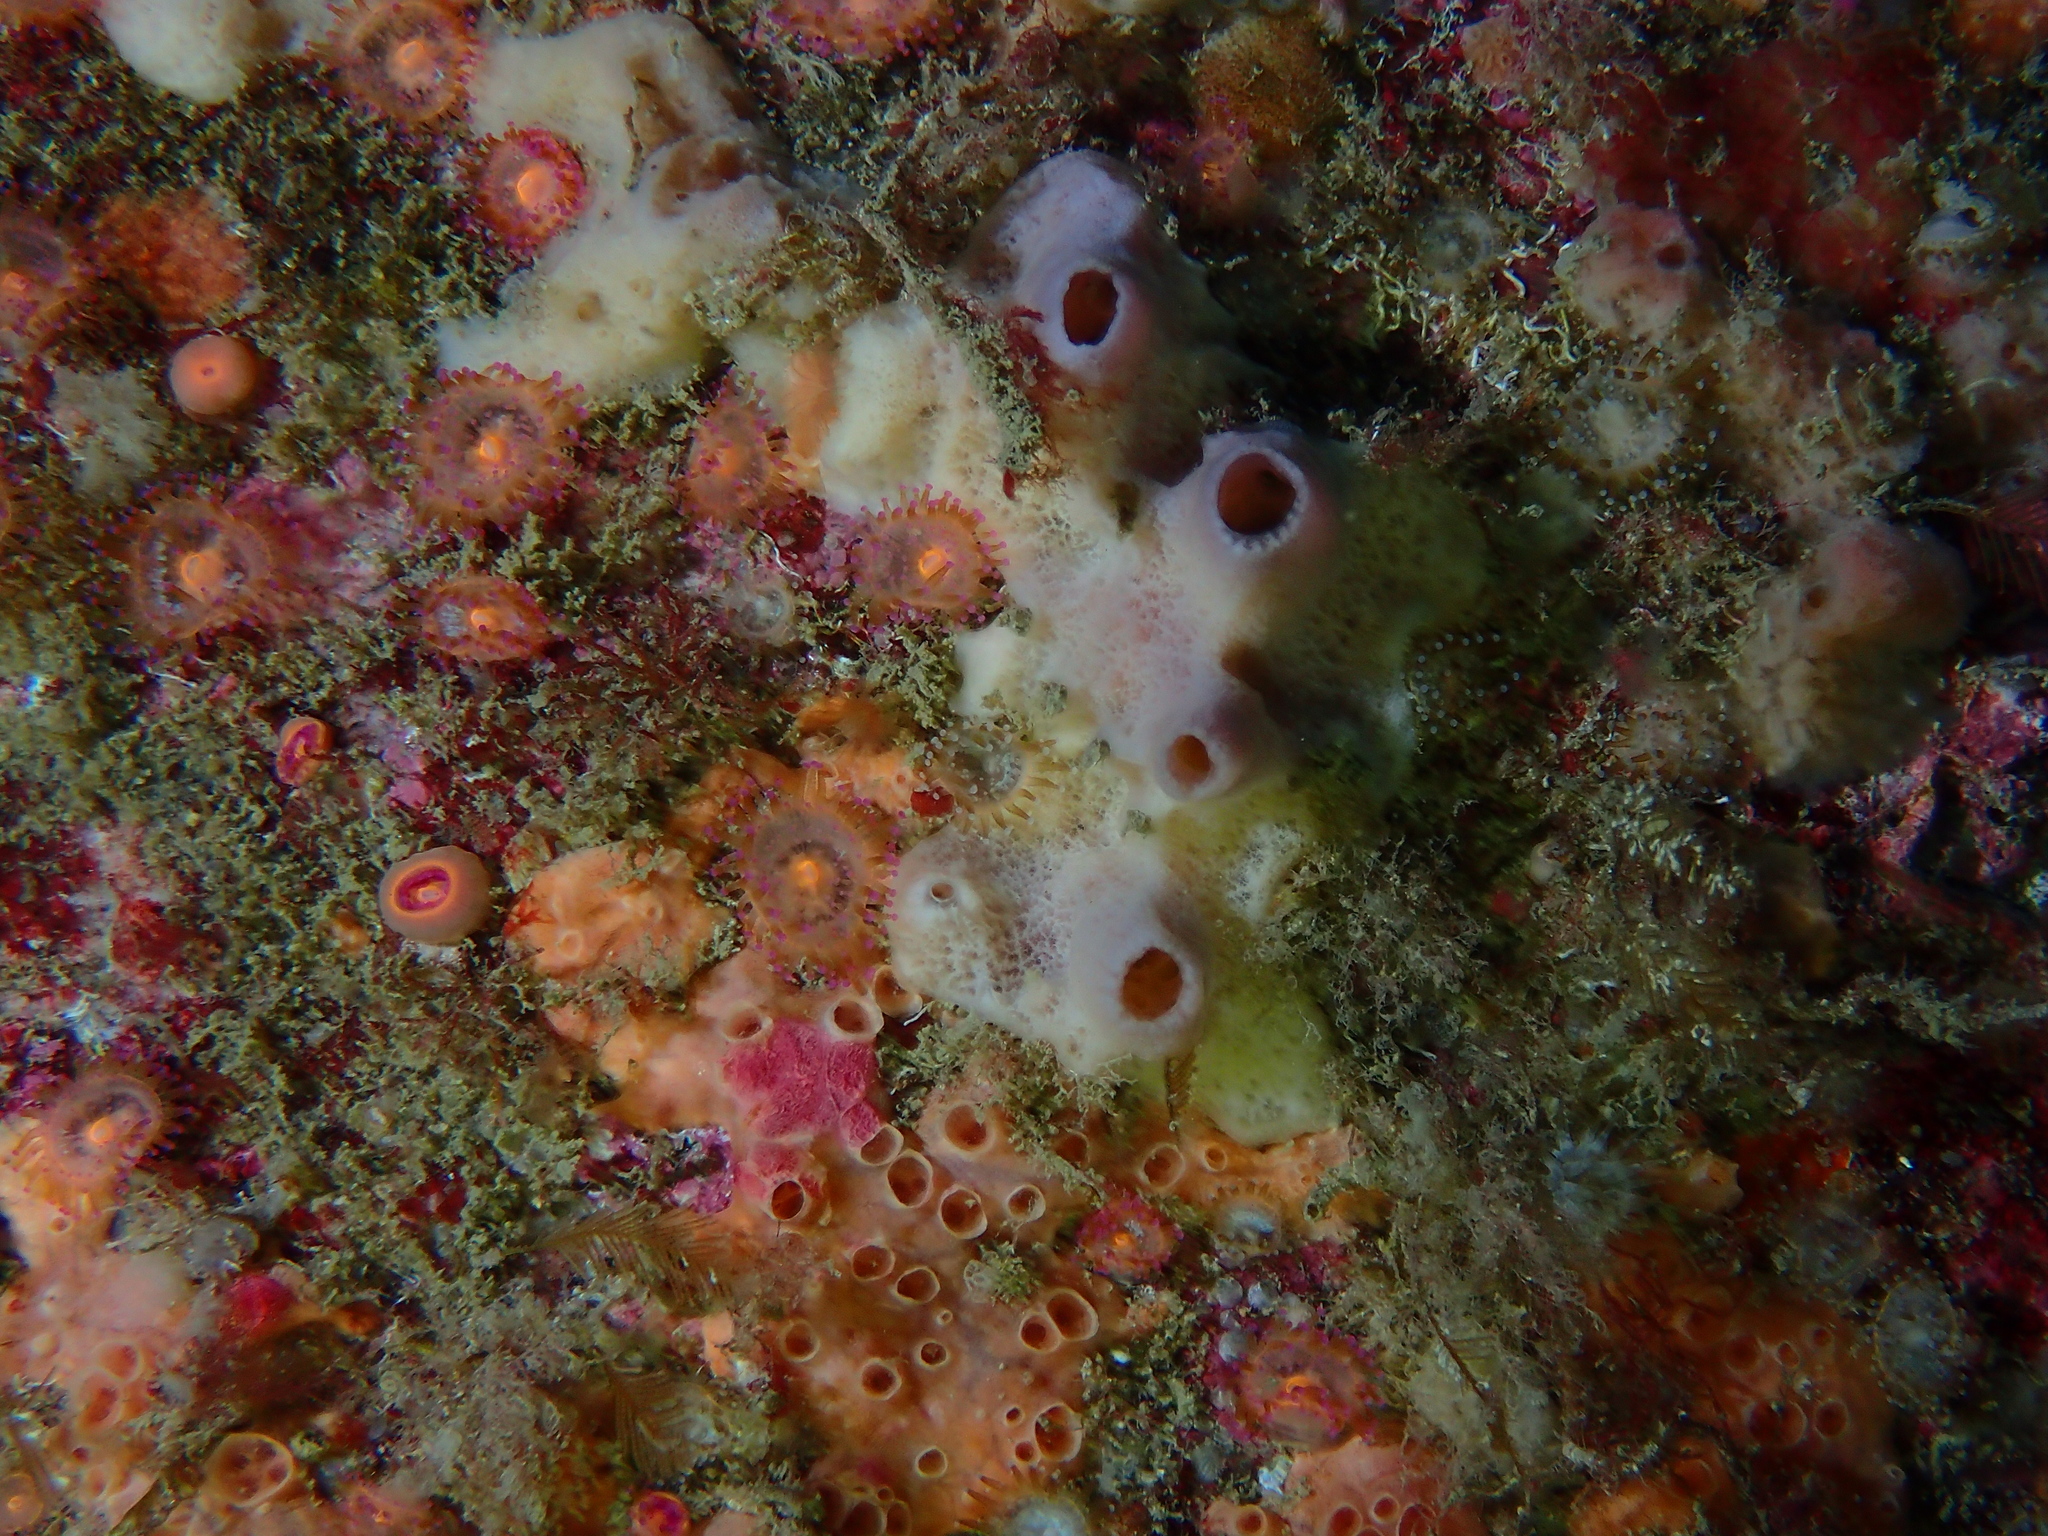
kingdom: Animalia
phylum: Cnidaria
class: Anthozoa
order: Corallimorpharia
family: Corallimorphidae
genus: Corynactis
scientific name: Corynactis viridis
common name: Jewel anemone
